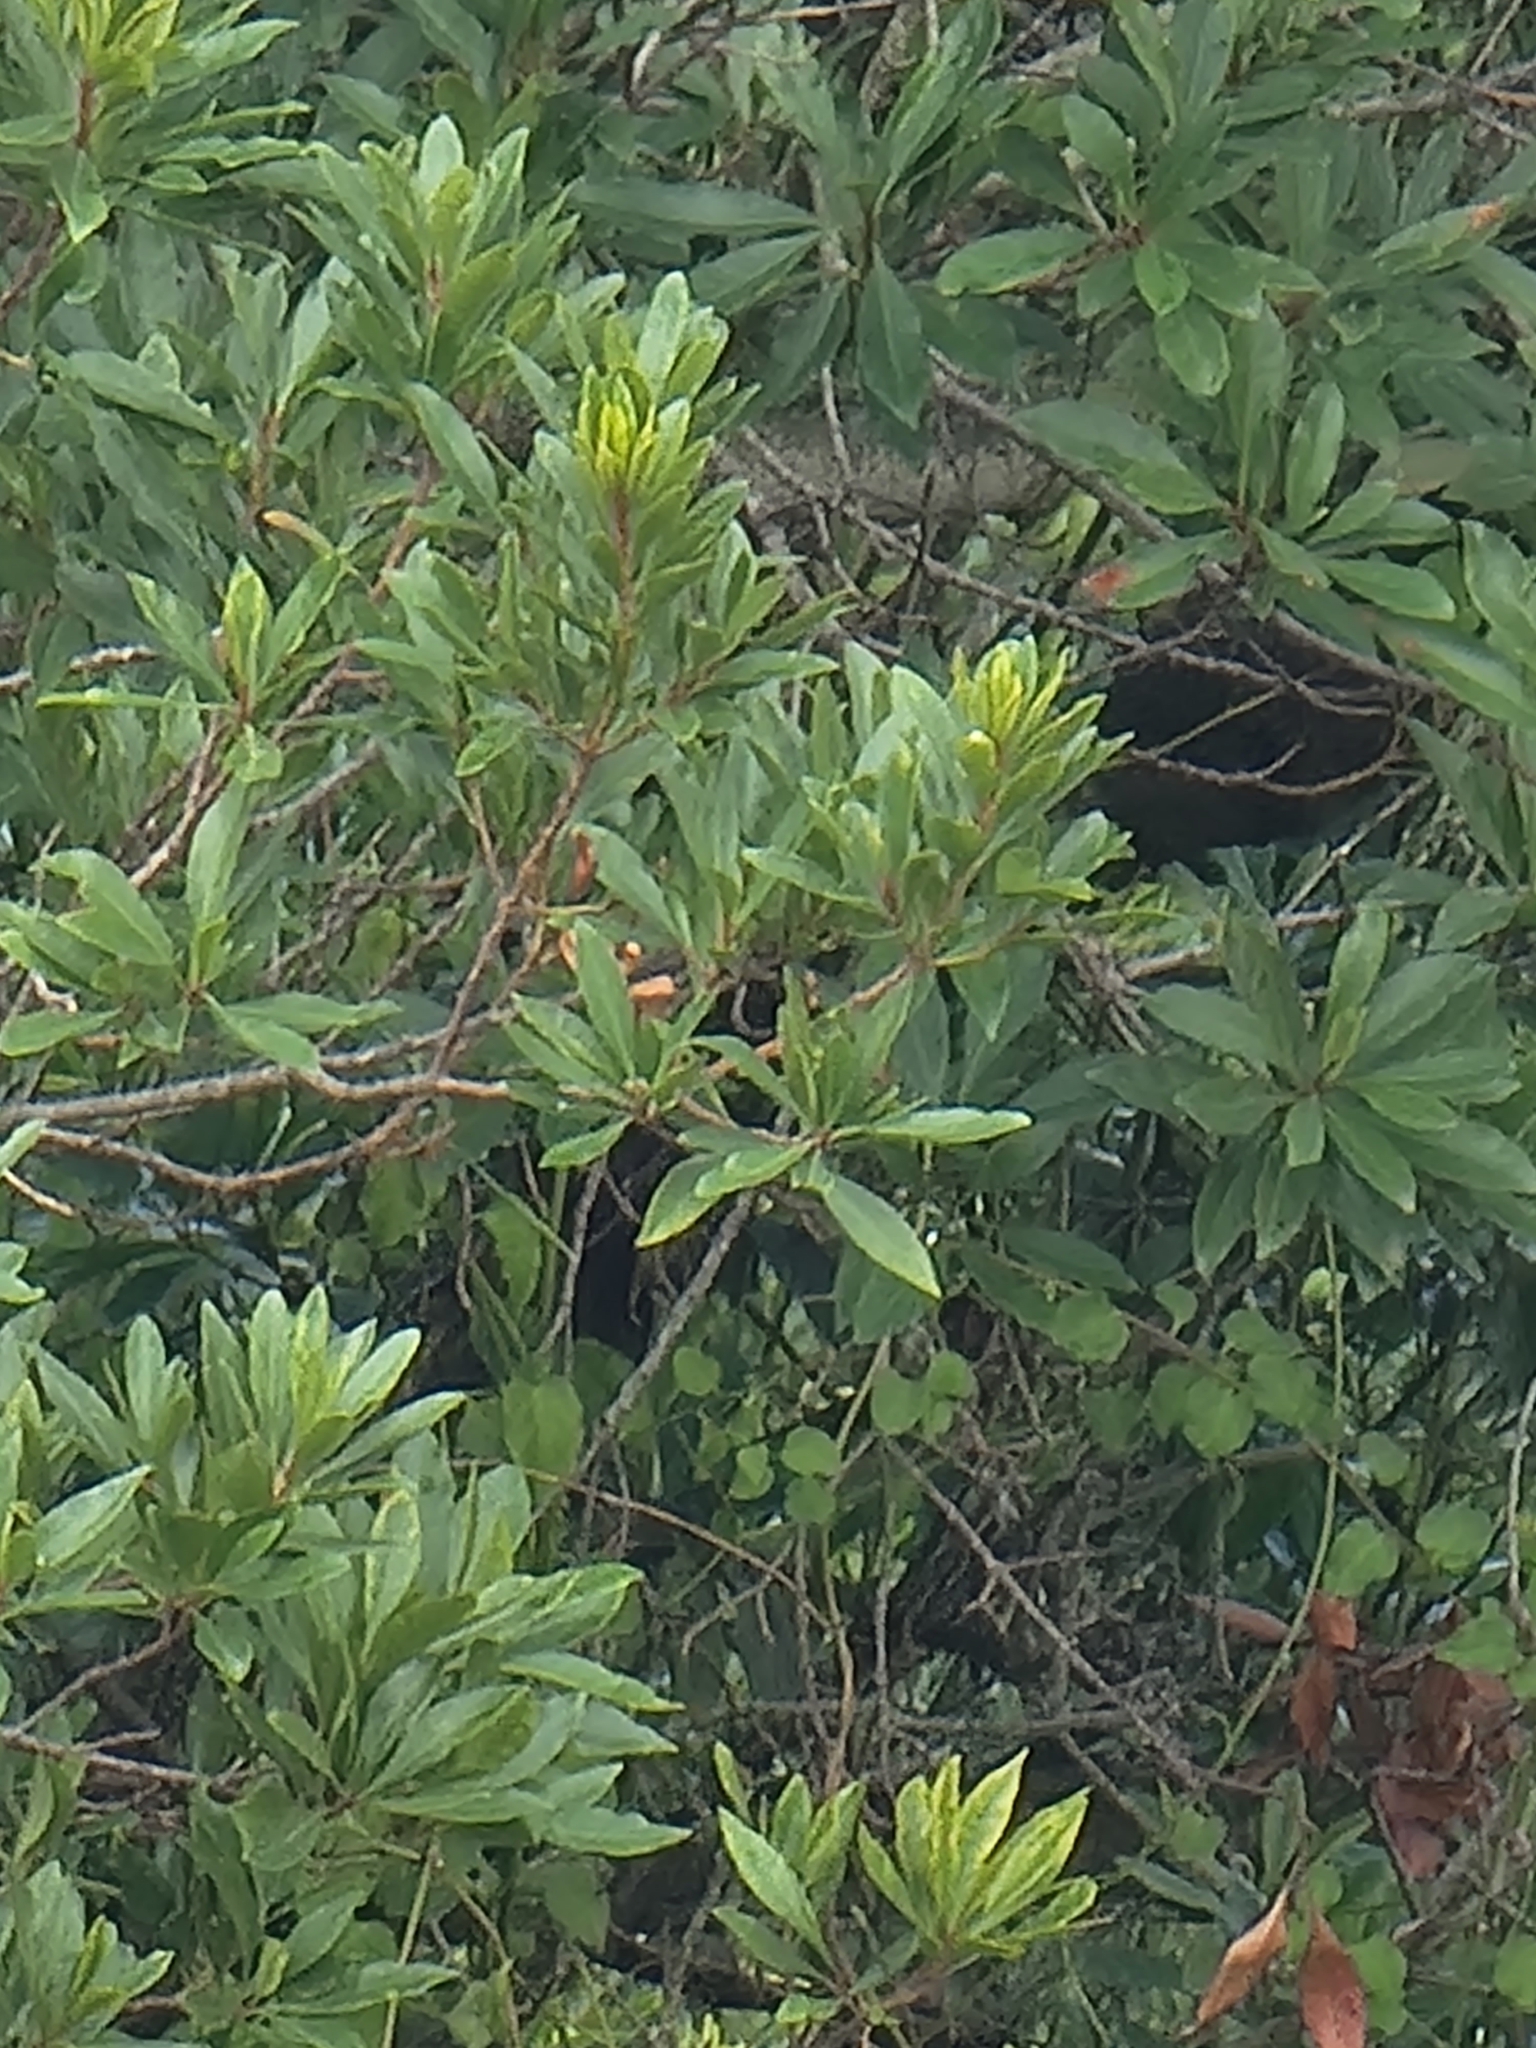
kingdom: Plantae
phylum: Tracheophyta
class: Magnoliopsida
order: Fagales
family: Myricaceae
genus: Morella
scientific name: Morella faya
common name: Firetree
